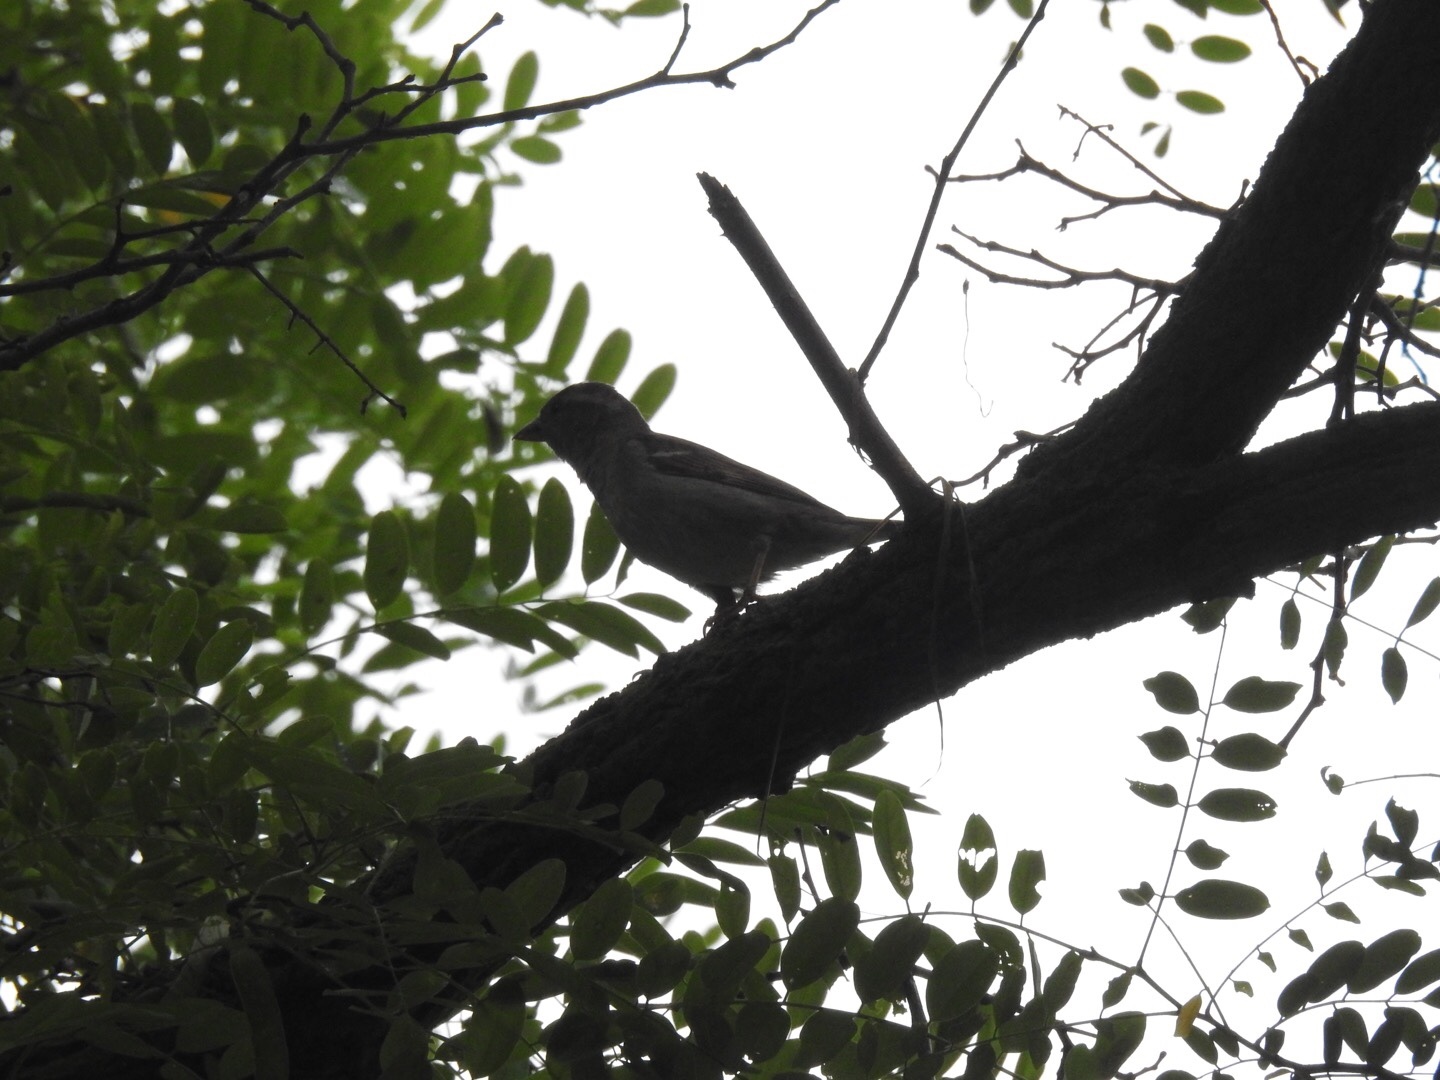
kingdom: Animalia
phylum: Chordata
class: Aves
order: Passeriformes
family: Passeridae
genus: Passer
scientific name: Passer domesticus
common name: House sparrow
